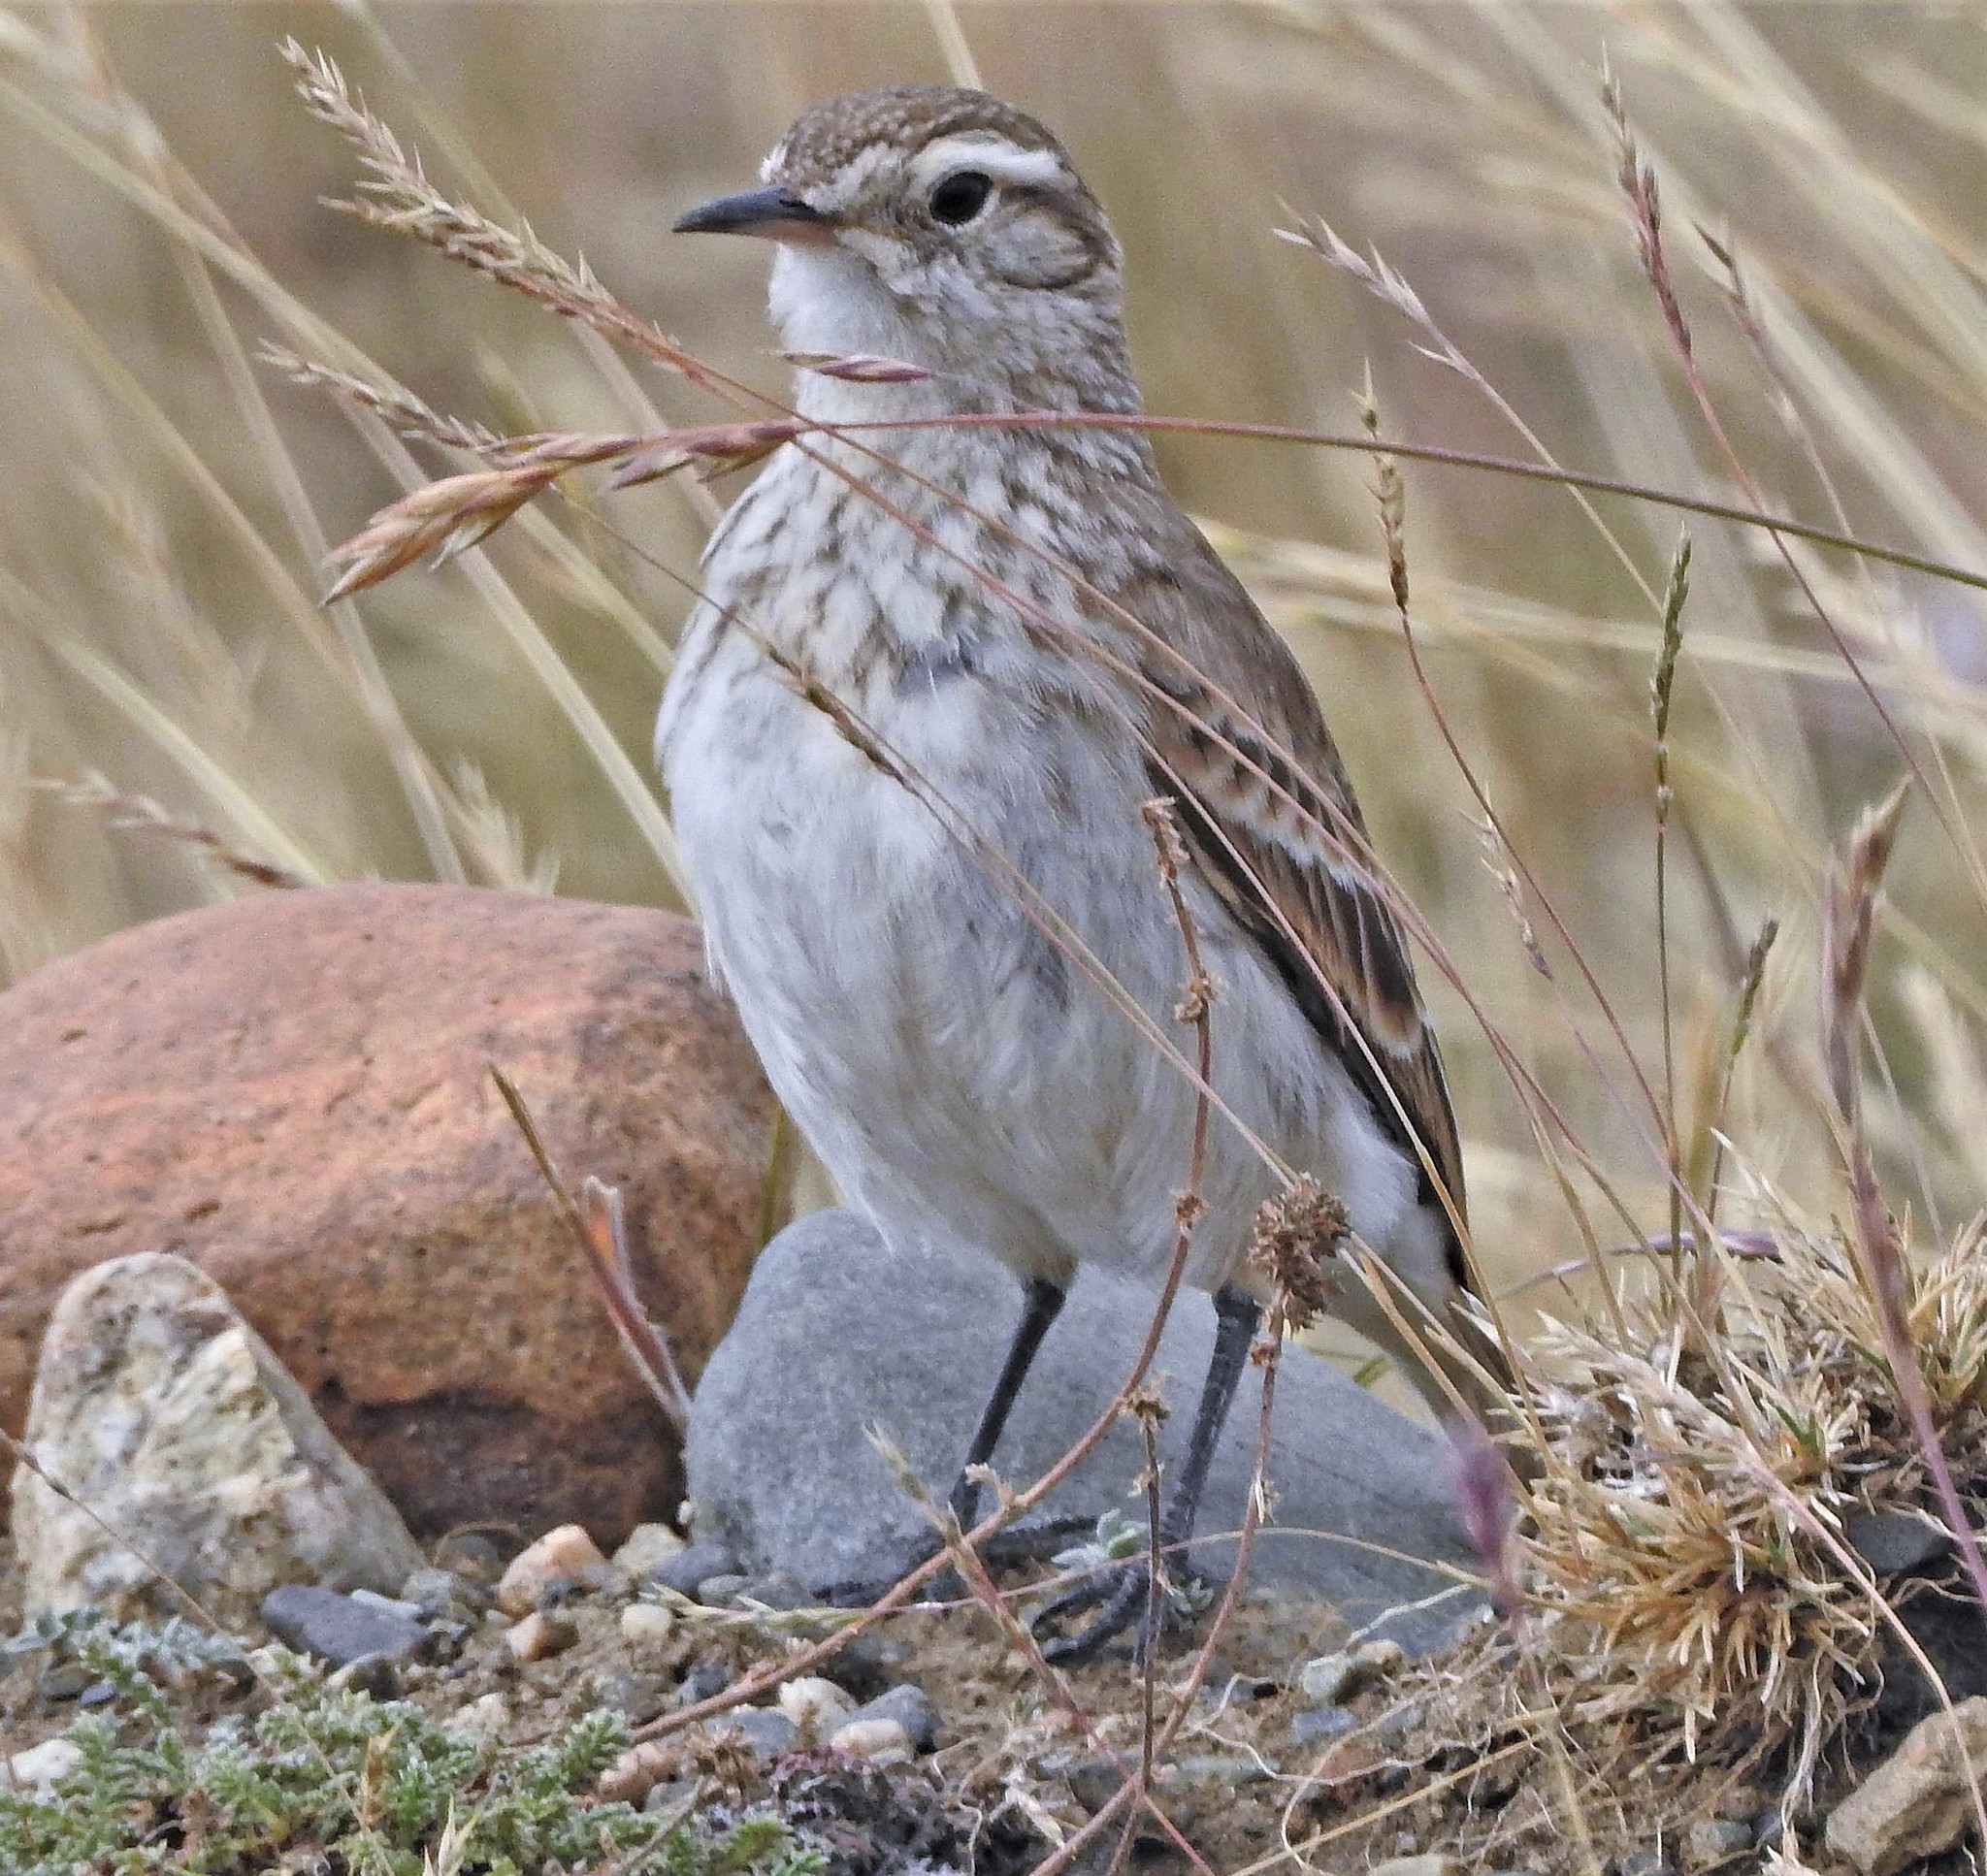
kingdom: Animalia
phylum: Chordata
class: Aves
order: Passeriformes
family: Furnariidae
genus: Geositta
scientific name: Geositta cunicularia
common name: Common miner
